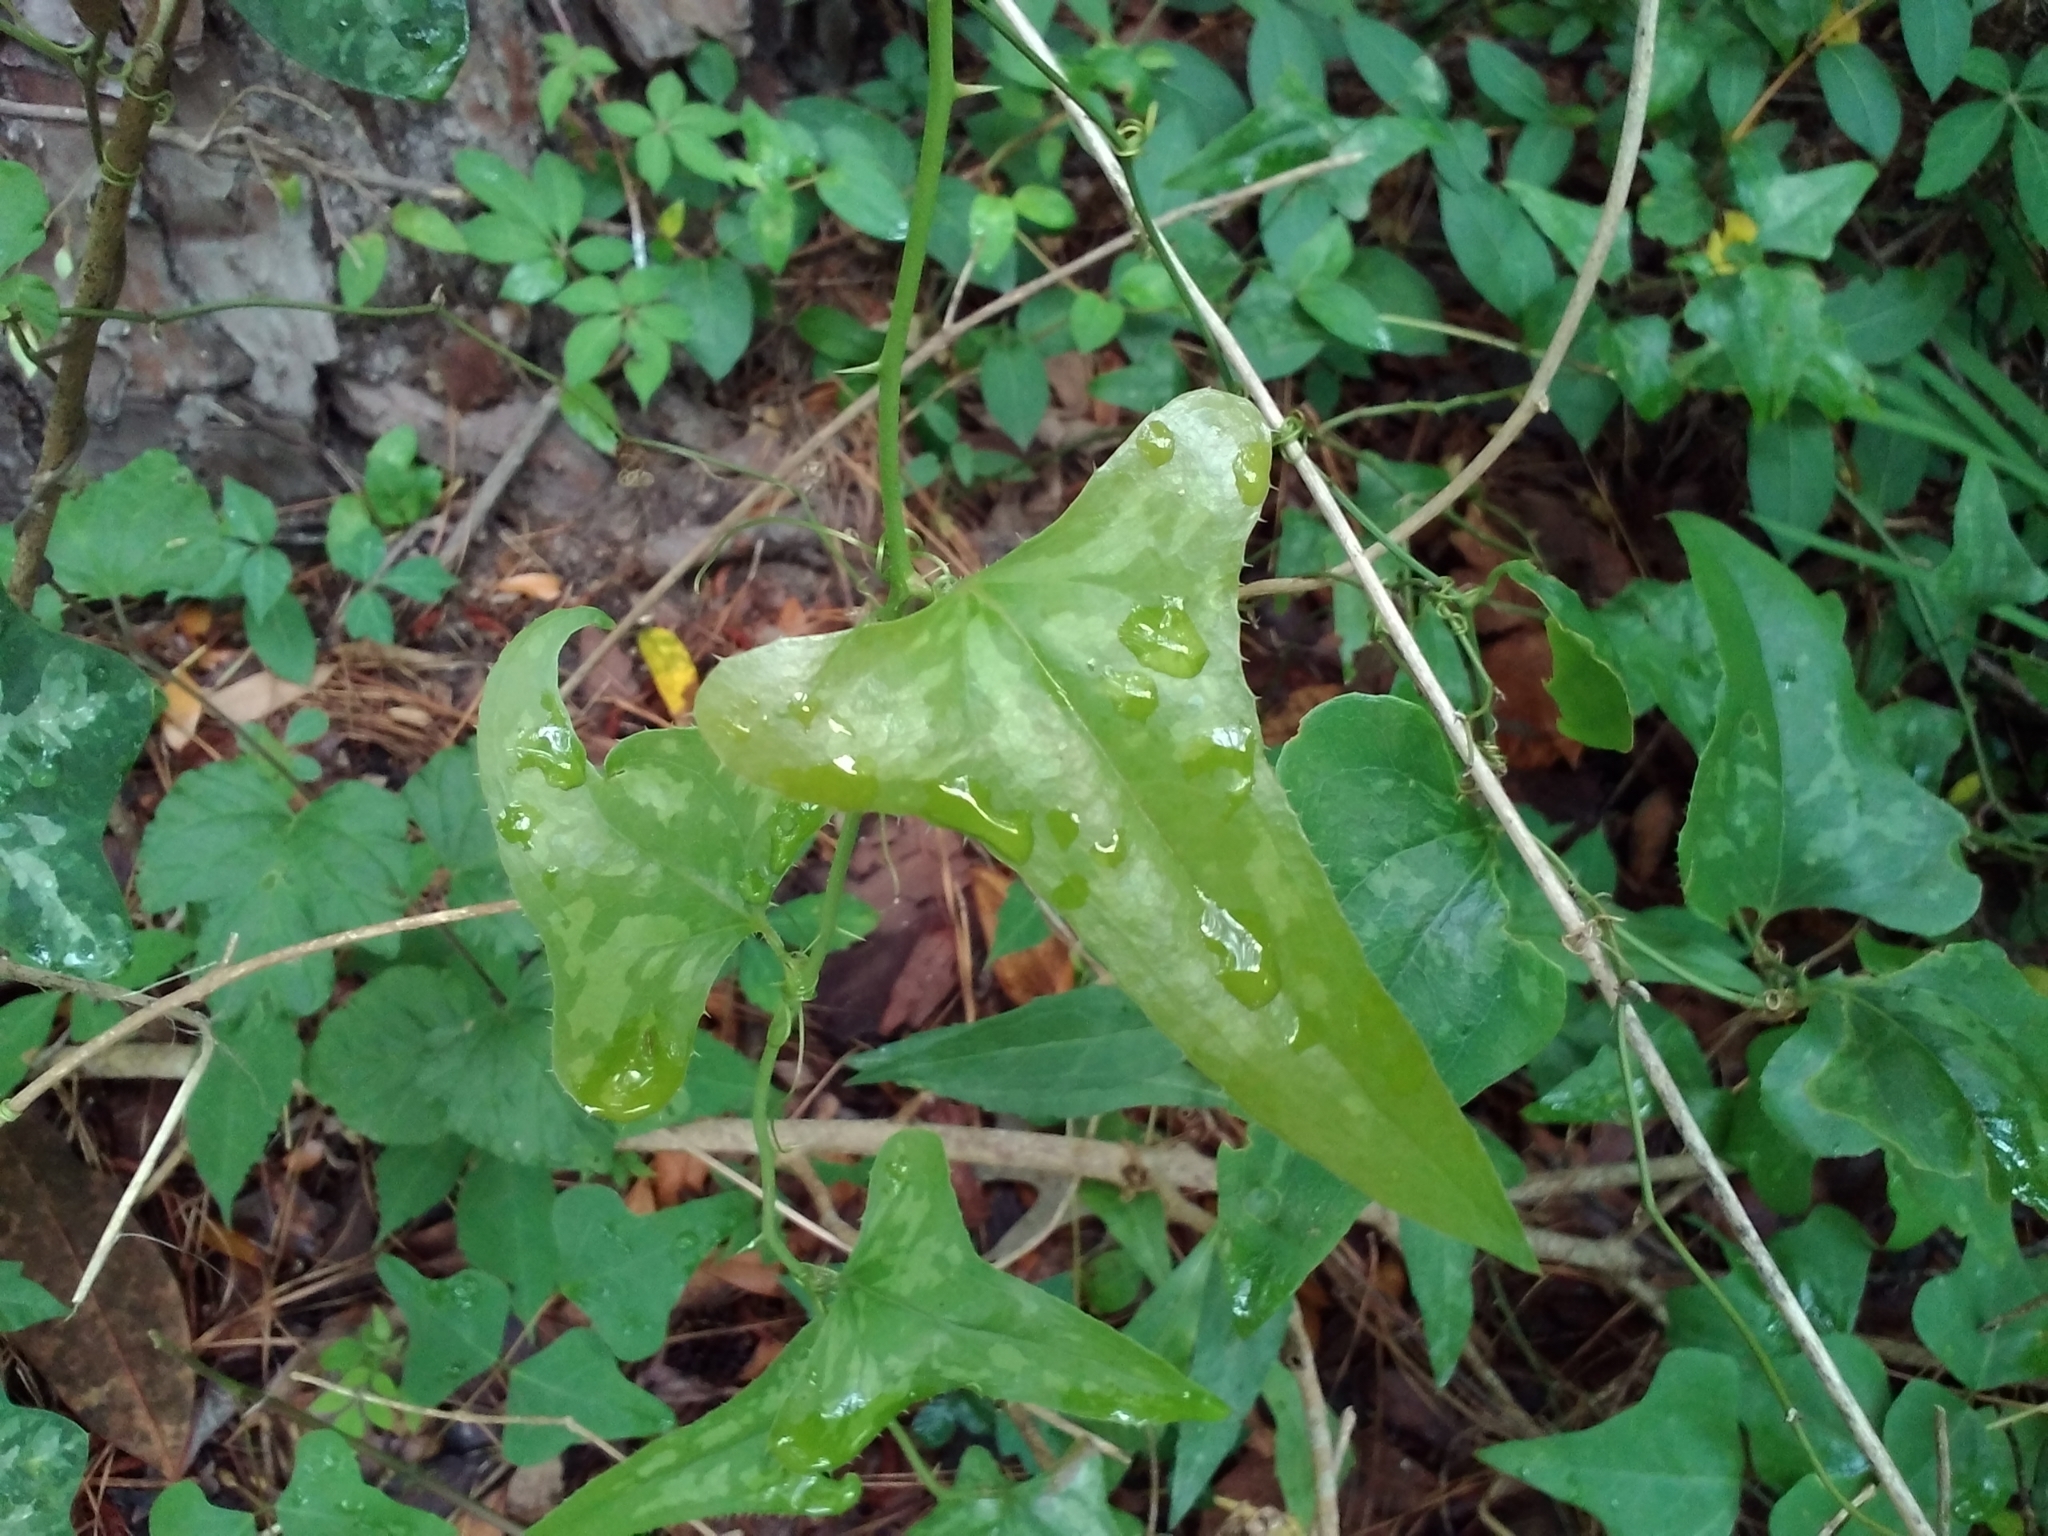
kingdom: Plantae
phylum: Tracheophyta
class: Liliopsida
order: Liliales
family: Smilacaceae
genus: Smilax
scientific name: Smilax bona-nox
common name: Catbrier
